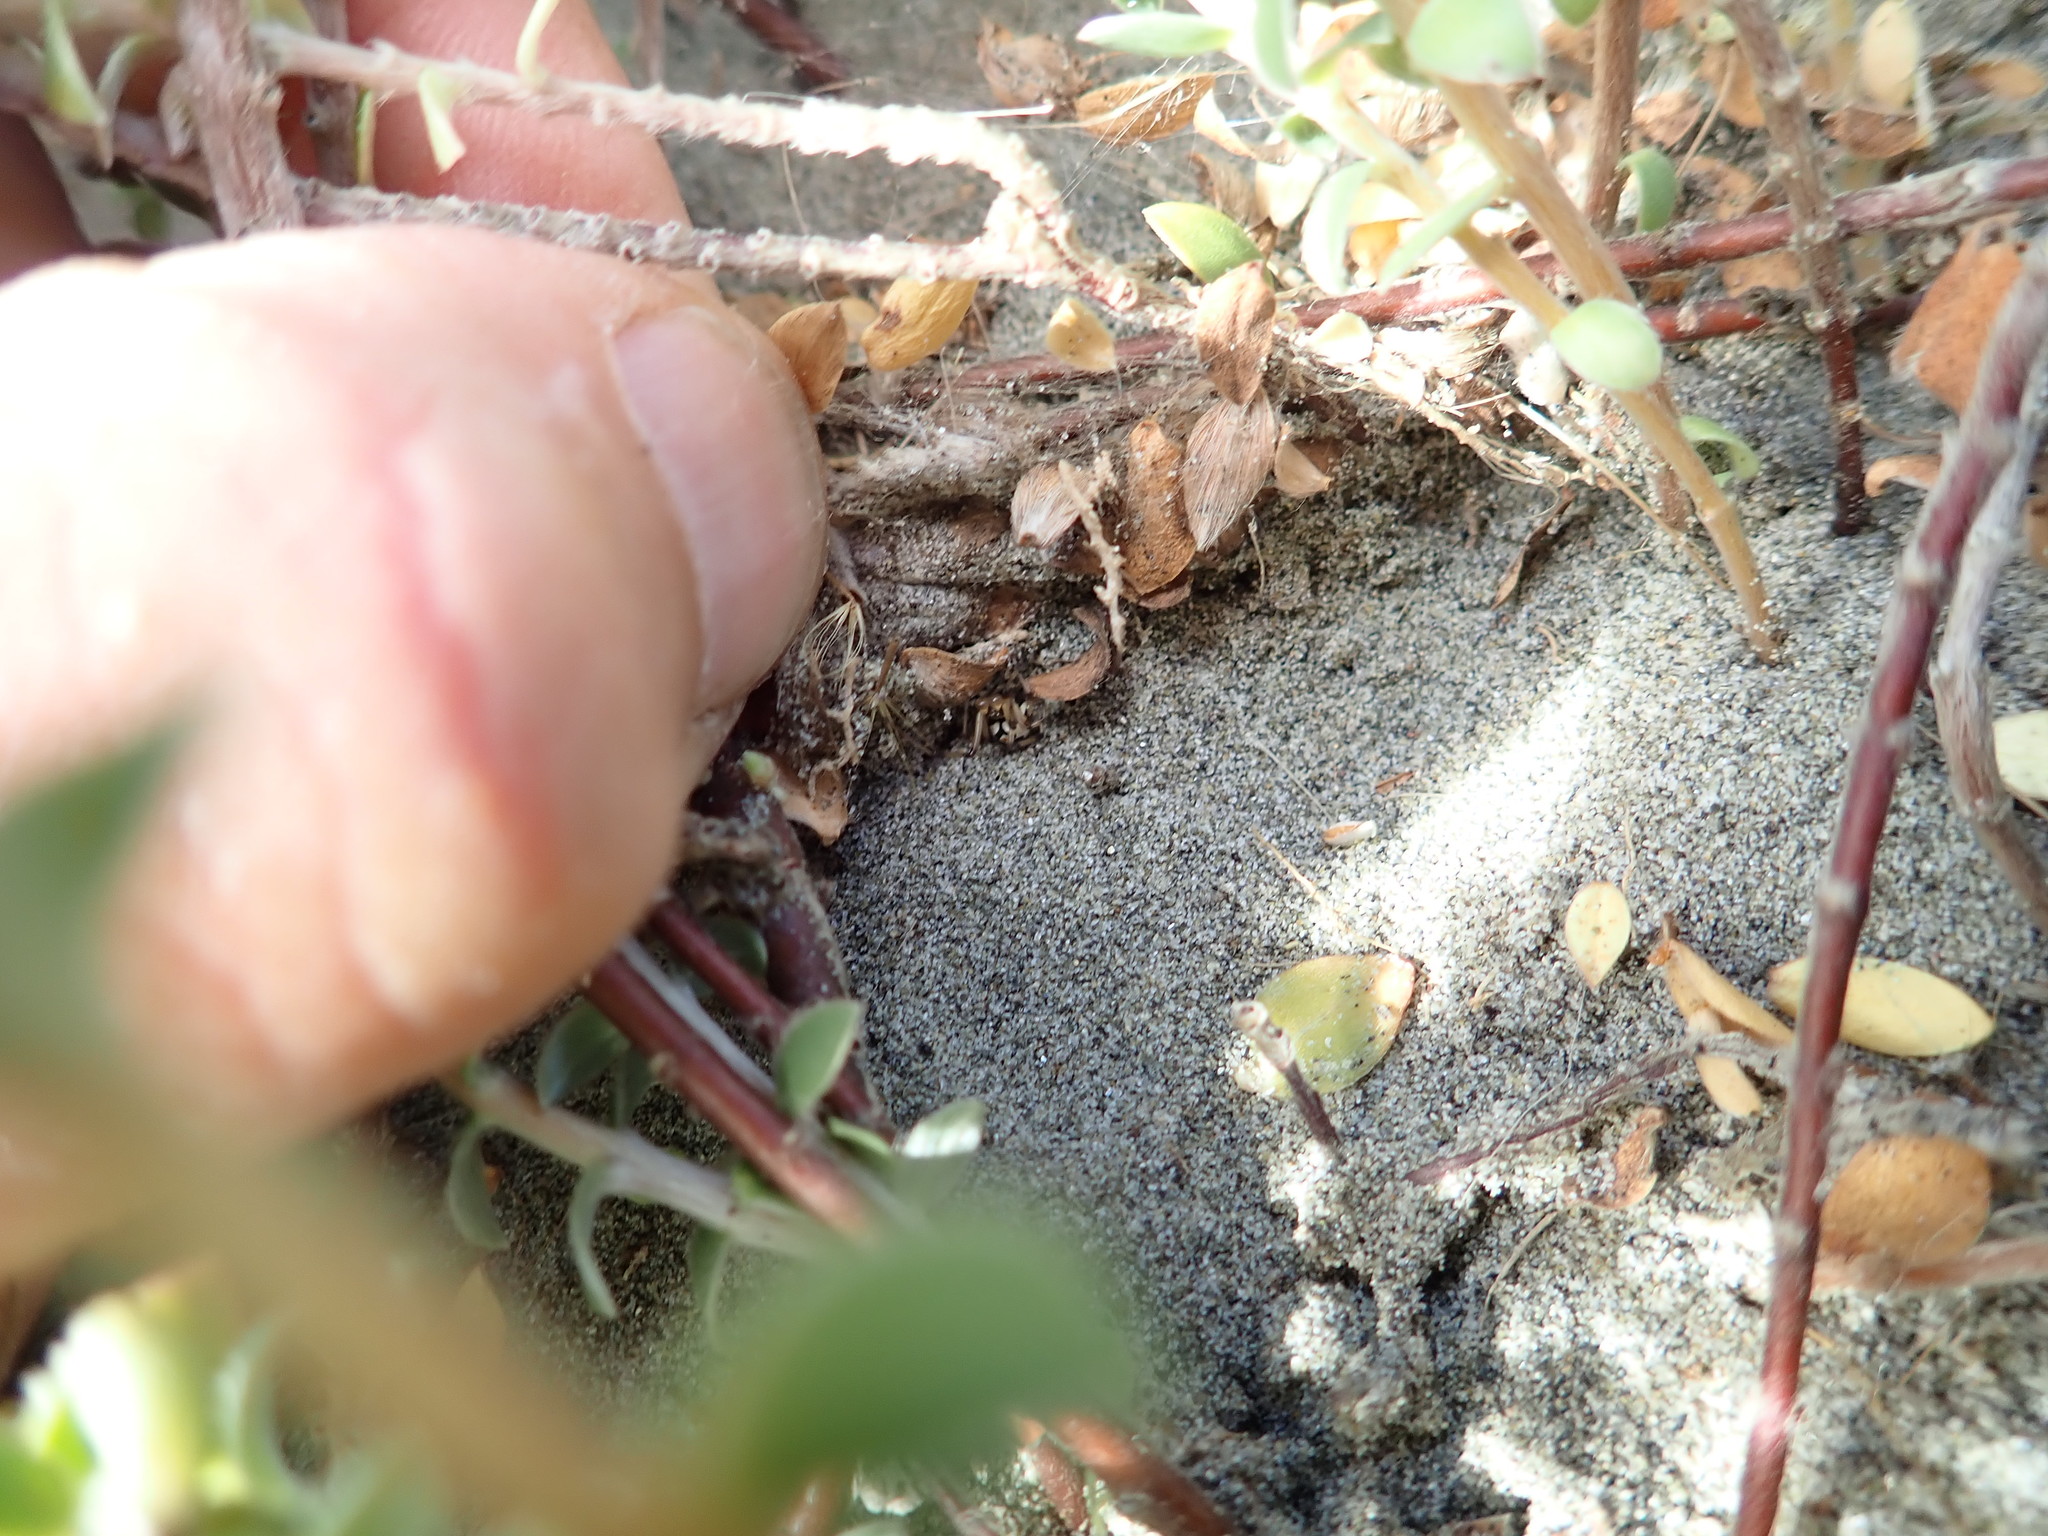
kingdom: Animalia
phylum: Arthropoda
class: Arachnida
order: Araneae
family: Theridiidae
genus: Latrodectus
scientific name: Latrodectus katipo
